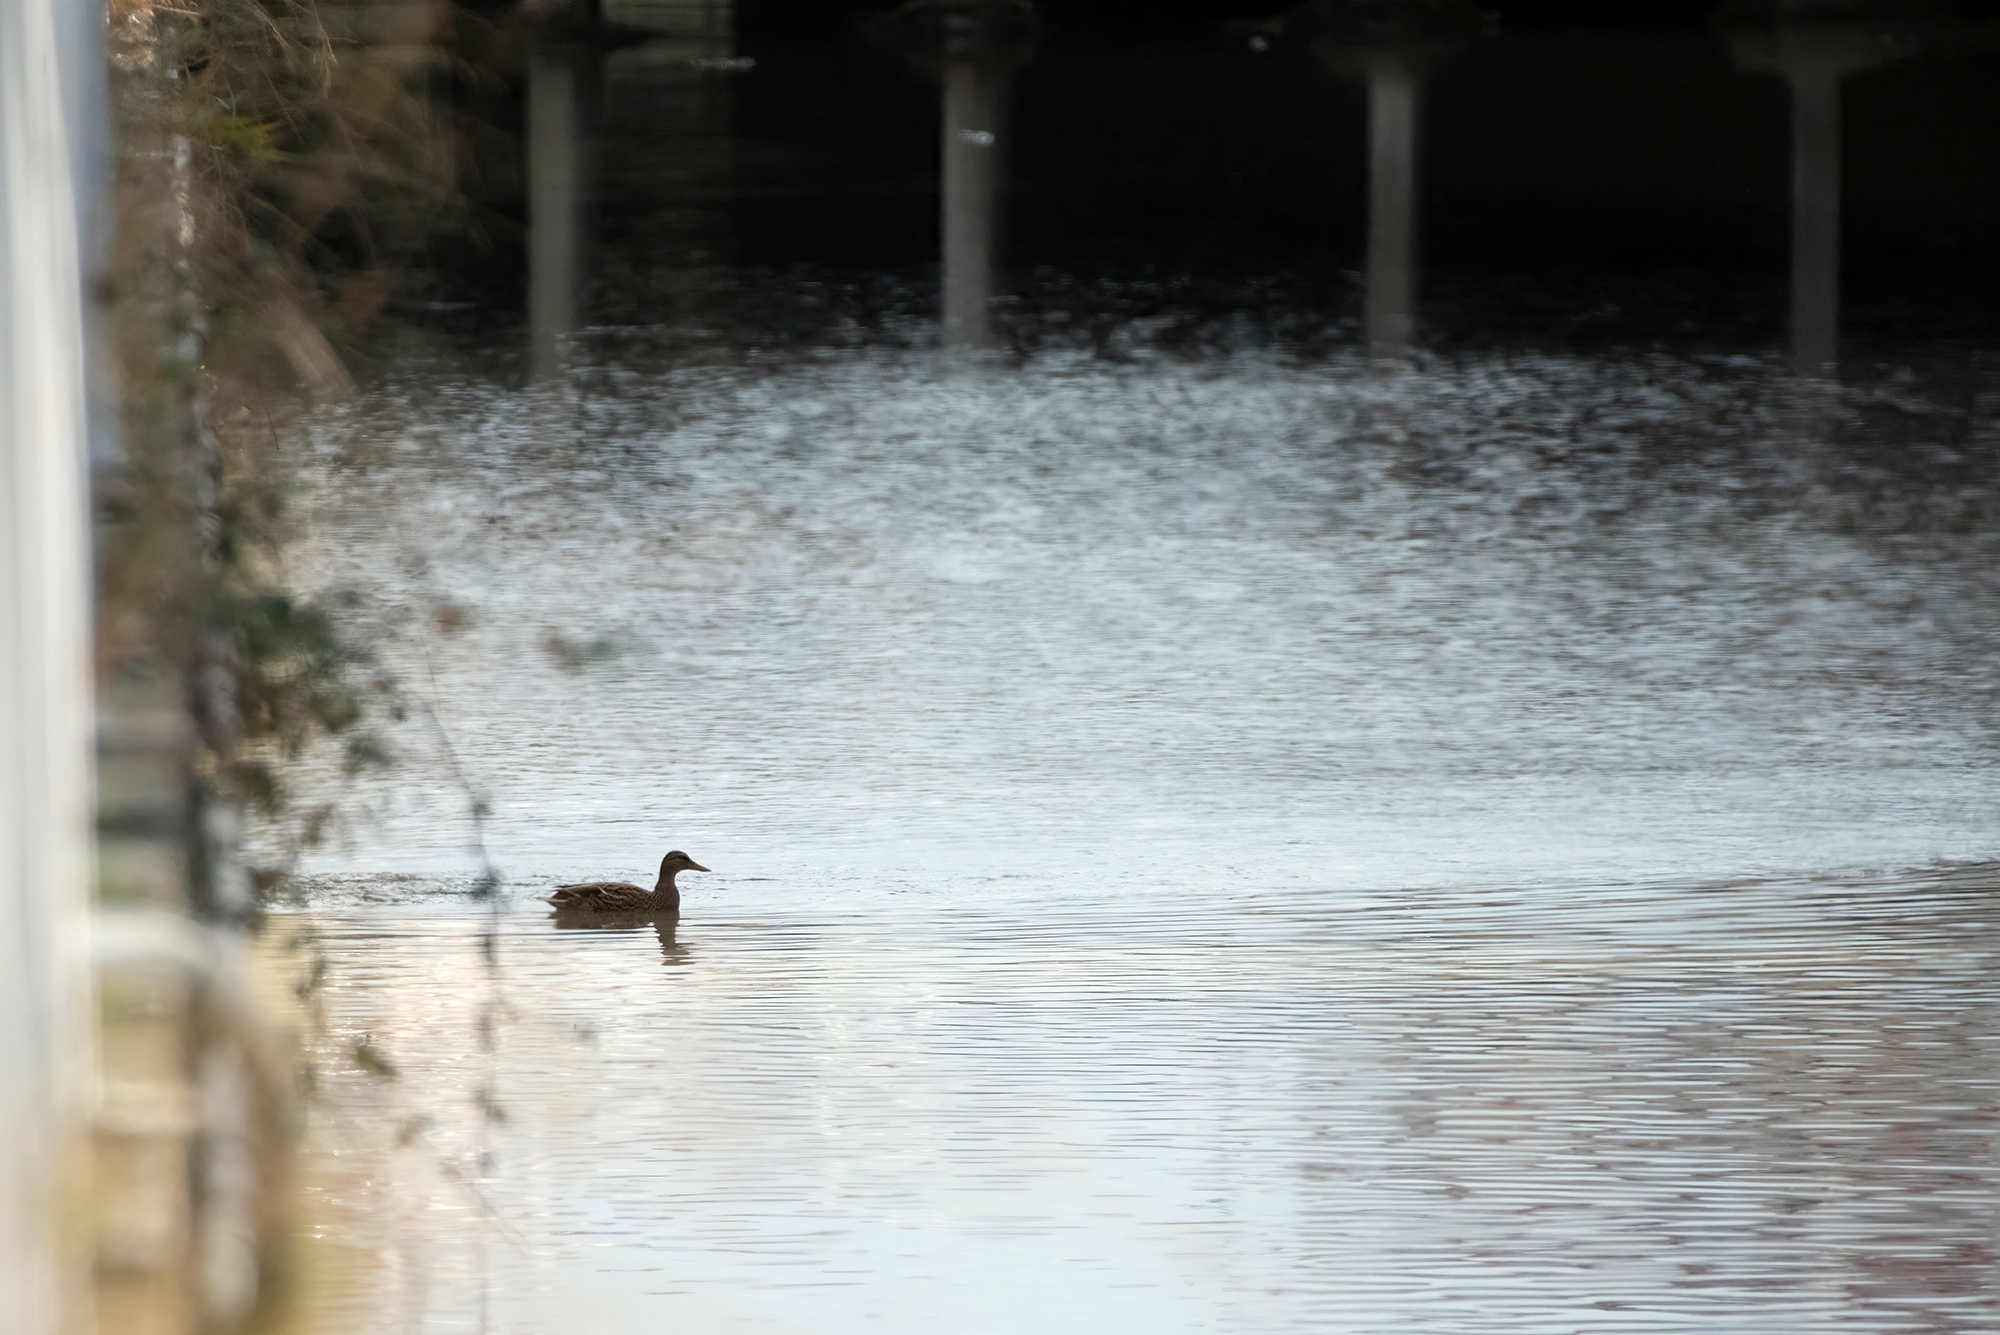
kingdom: Animalia
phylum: Chordata
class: Aves
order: Anseriformes
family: Anatidae
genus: Anas
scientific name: Anas platyrhynchos
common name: Mallard
